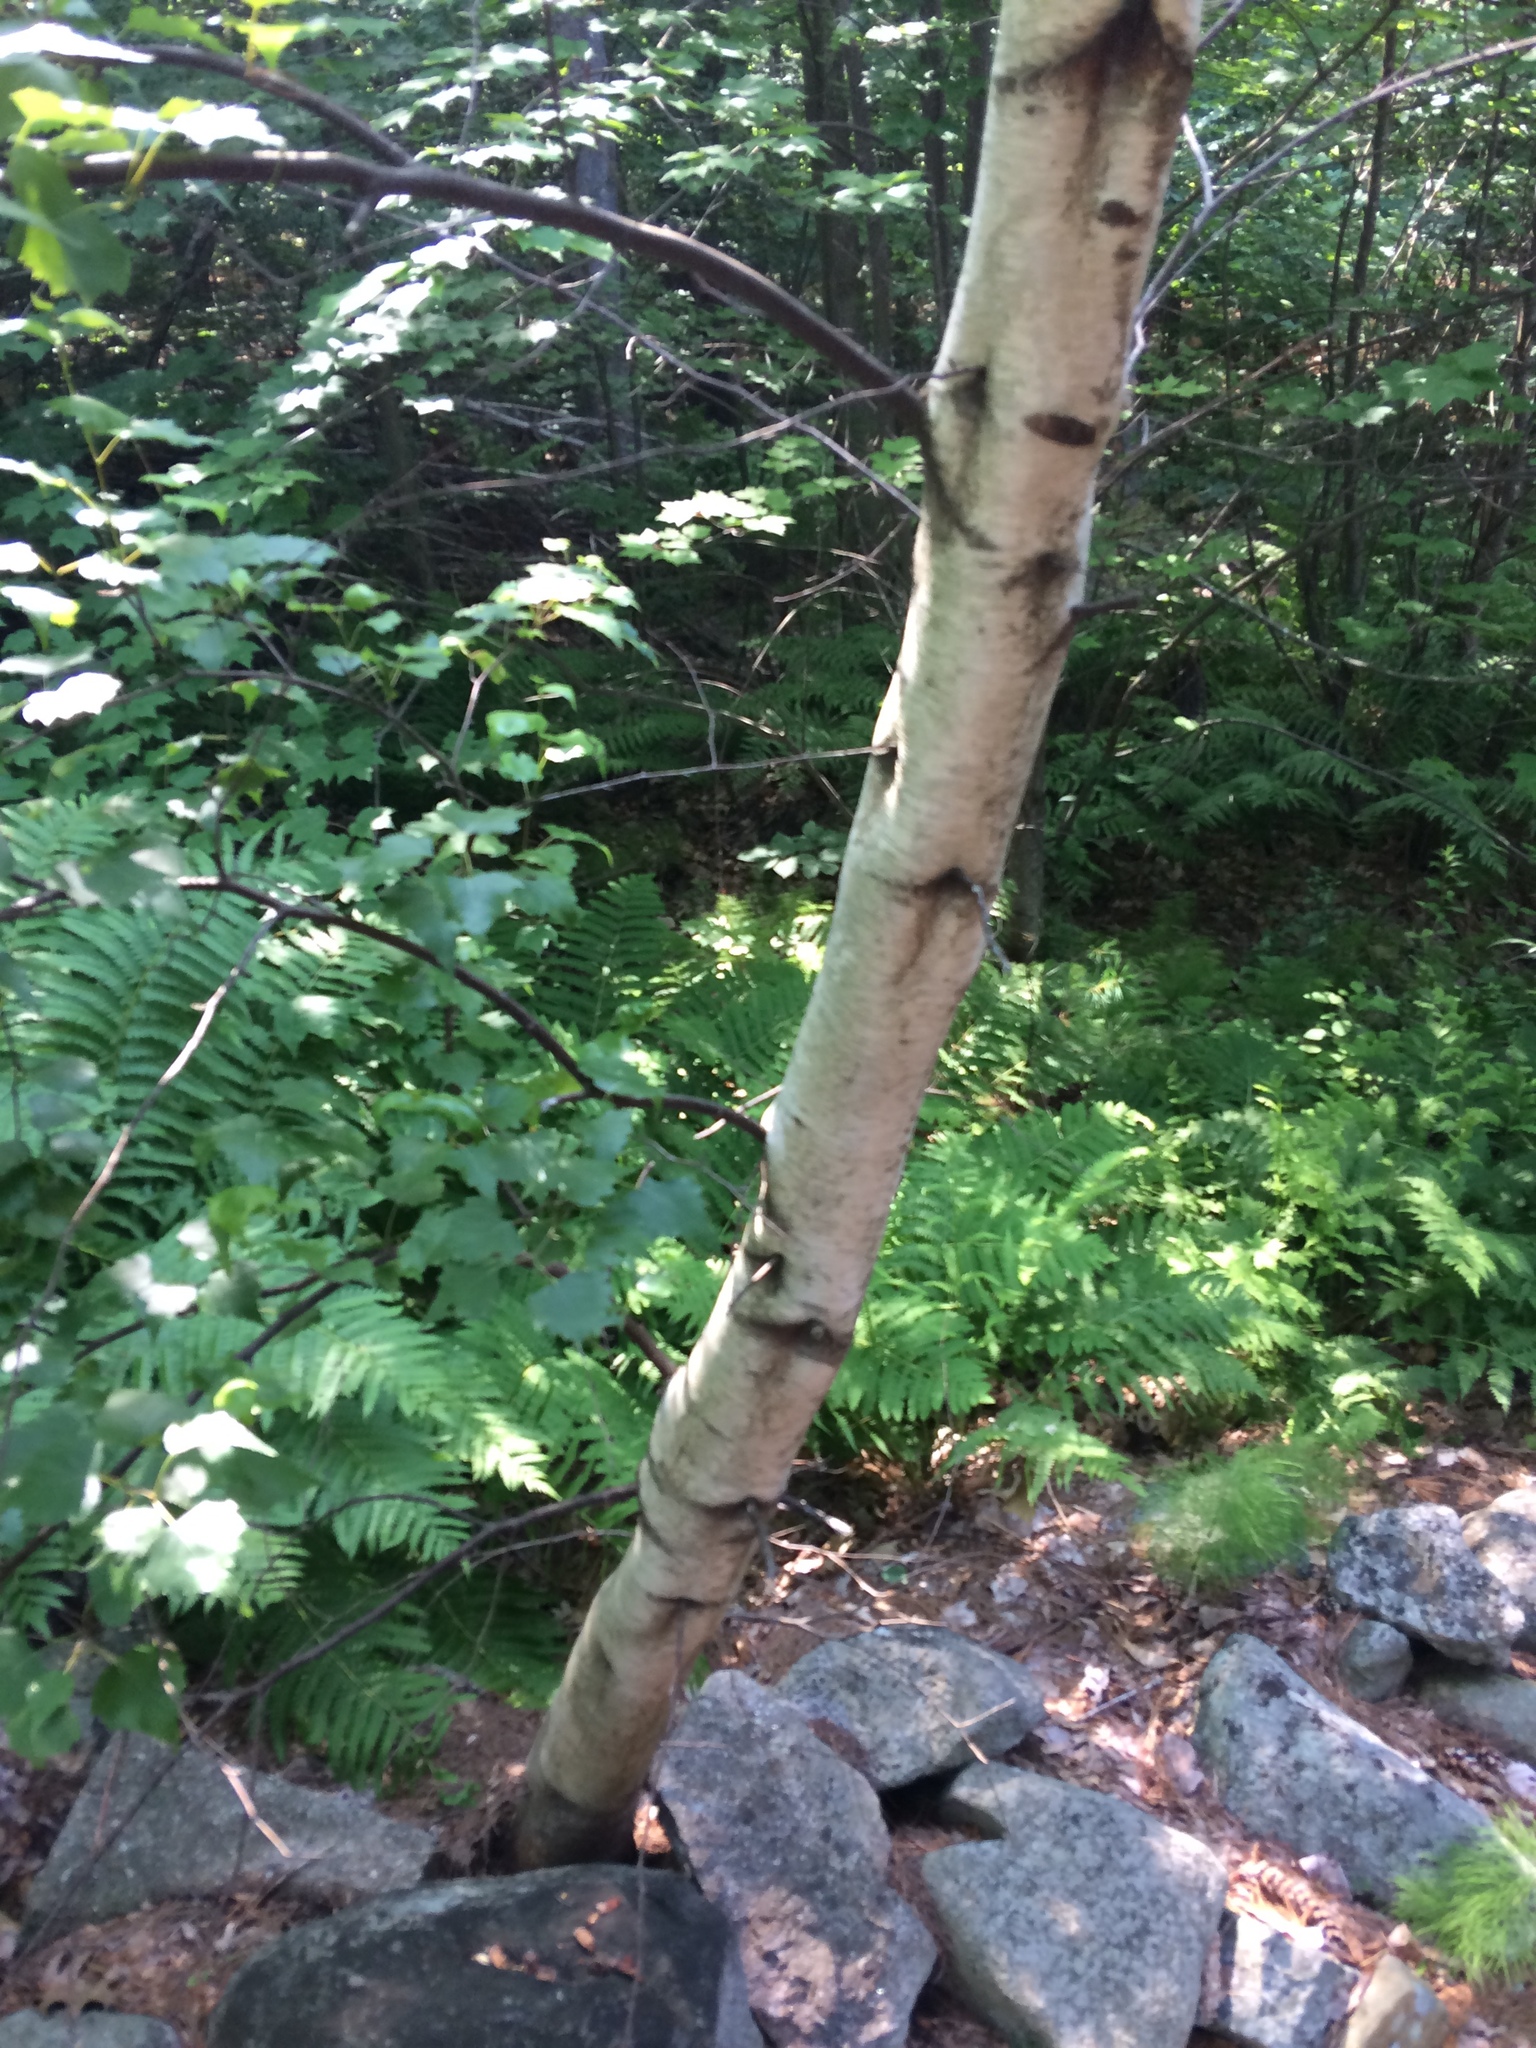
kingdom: Plantae
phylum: Tracheophyta
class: Magnoliopsida
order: Fagales
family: Betulaceae
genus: Betula
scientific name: Betula populifolia
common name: Fire birch
